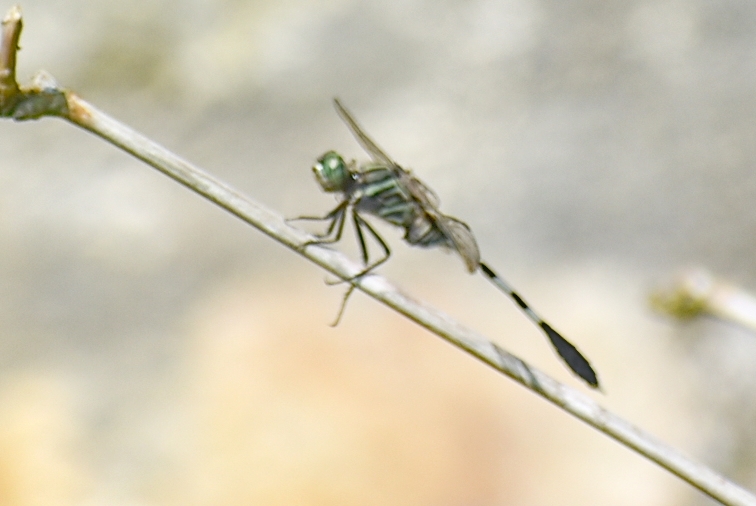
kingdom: Animalia
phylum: Arthropoda
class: Insecta
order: Odonata
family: Libellulidae
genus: Orthetrum
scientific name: Orthetrum sabina
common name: Slender skimmer
